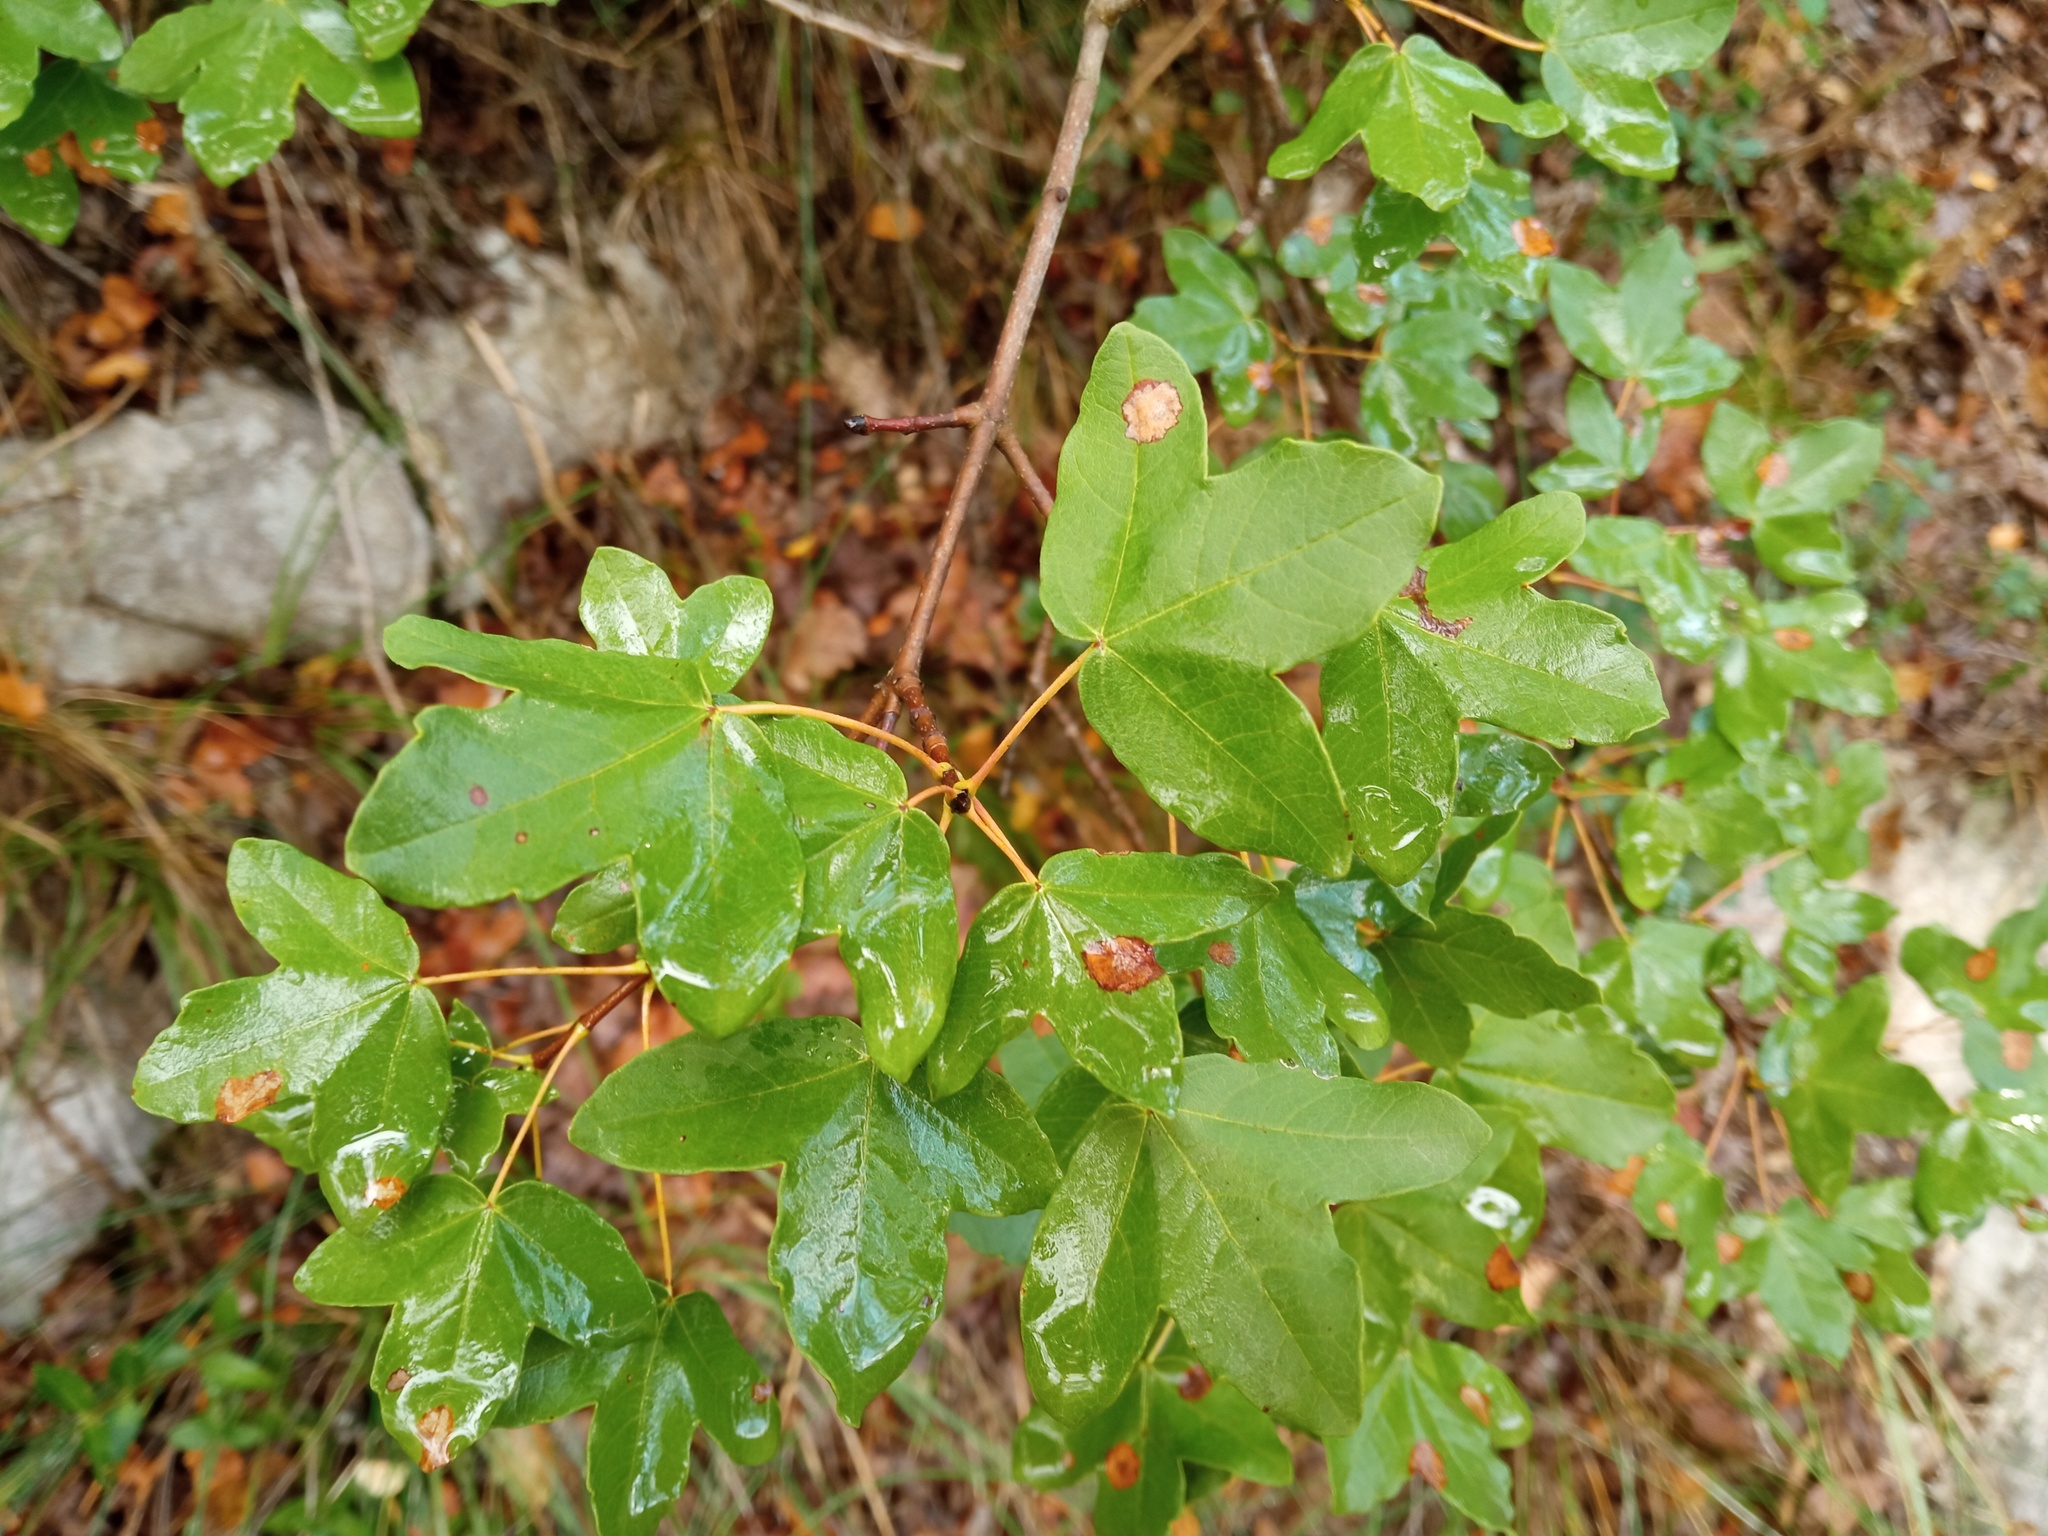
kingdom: Plantae
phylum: Tracheophyta
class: Magnoliopsida
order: Sapindales
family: Sapindaceae
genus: Acer
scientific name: Acer monspessulanum
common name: Montpellier maple
